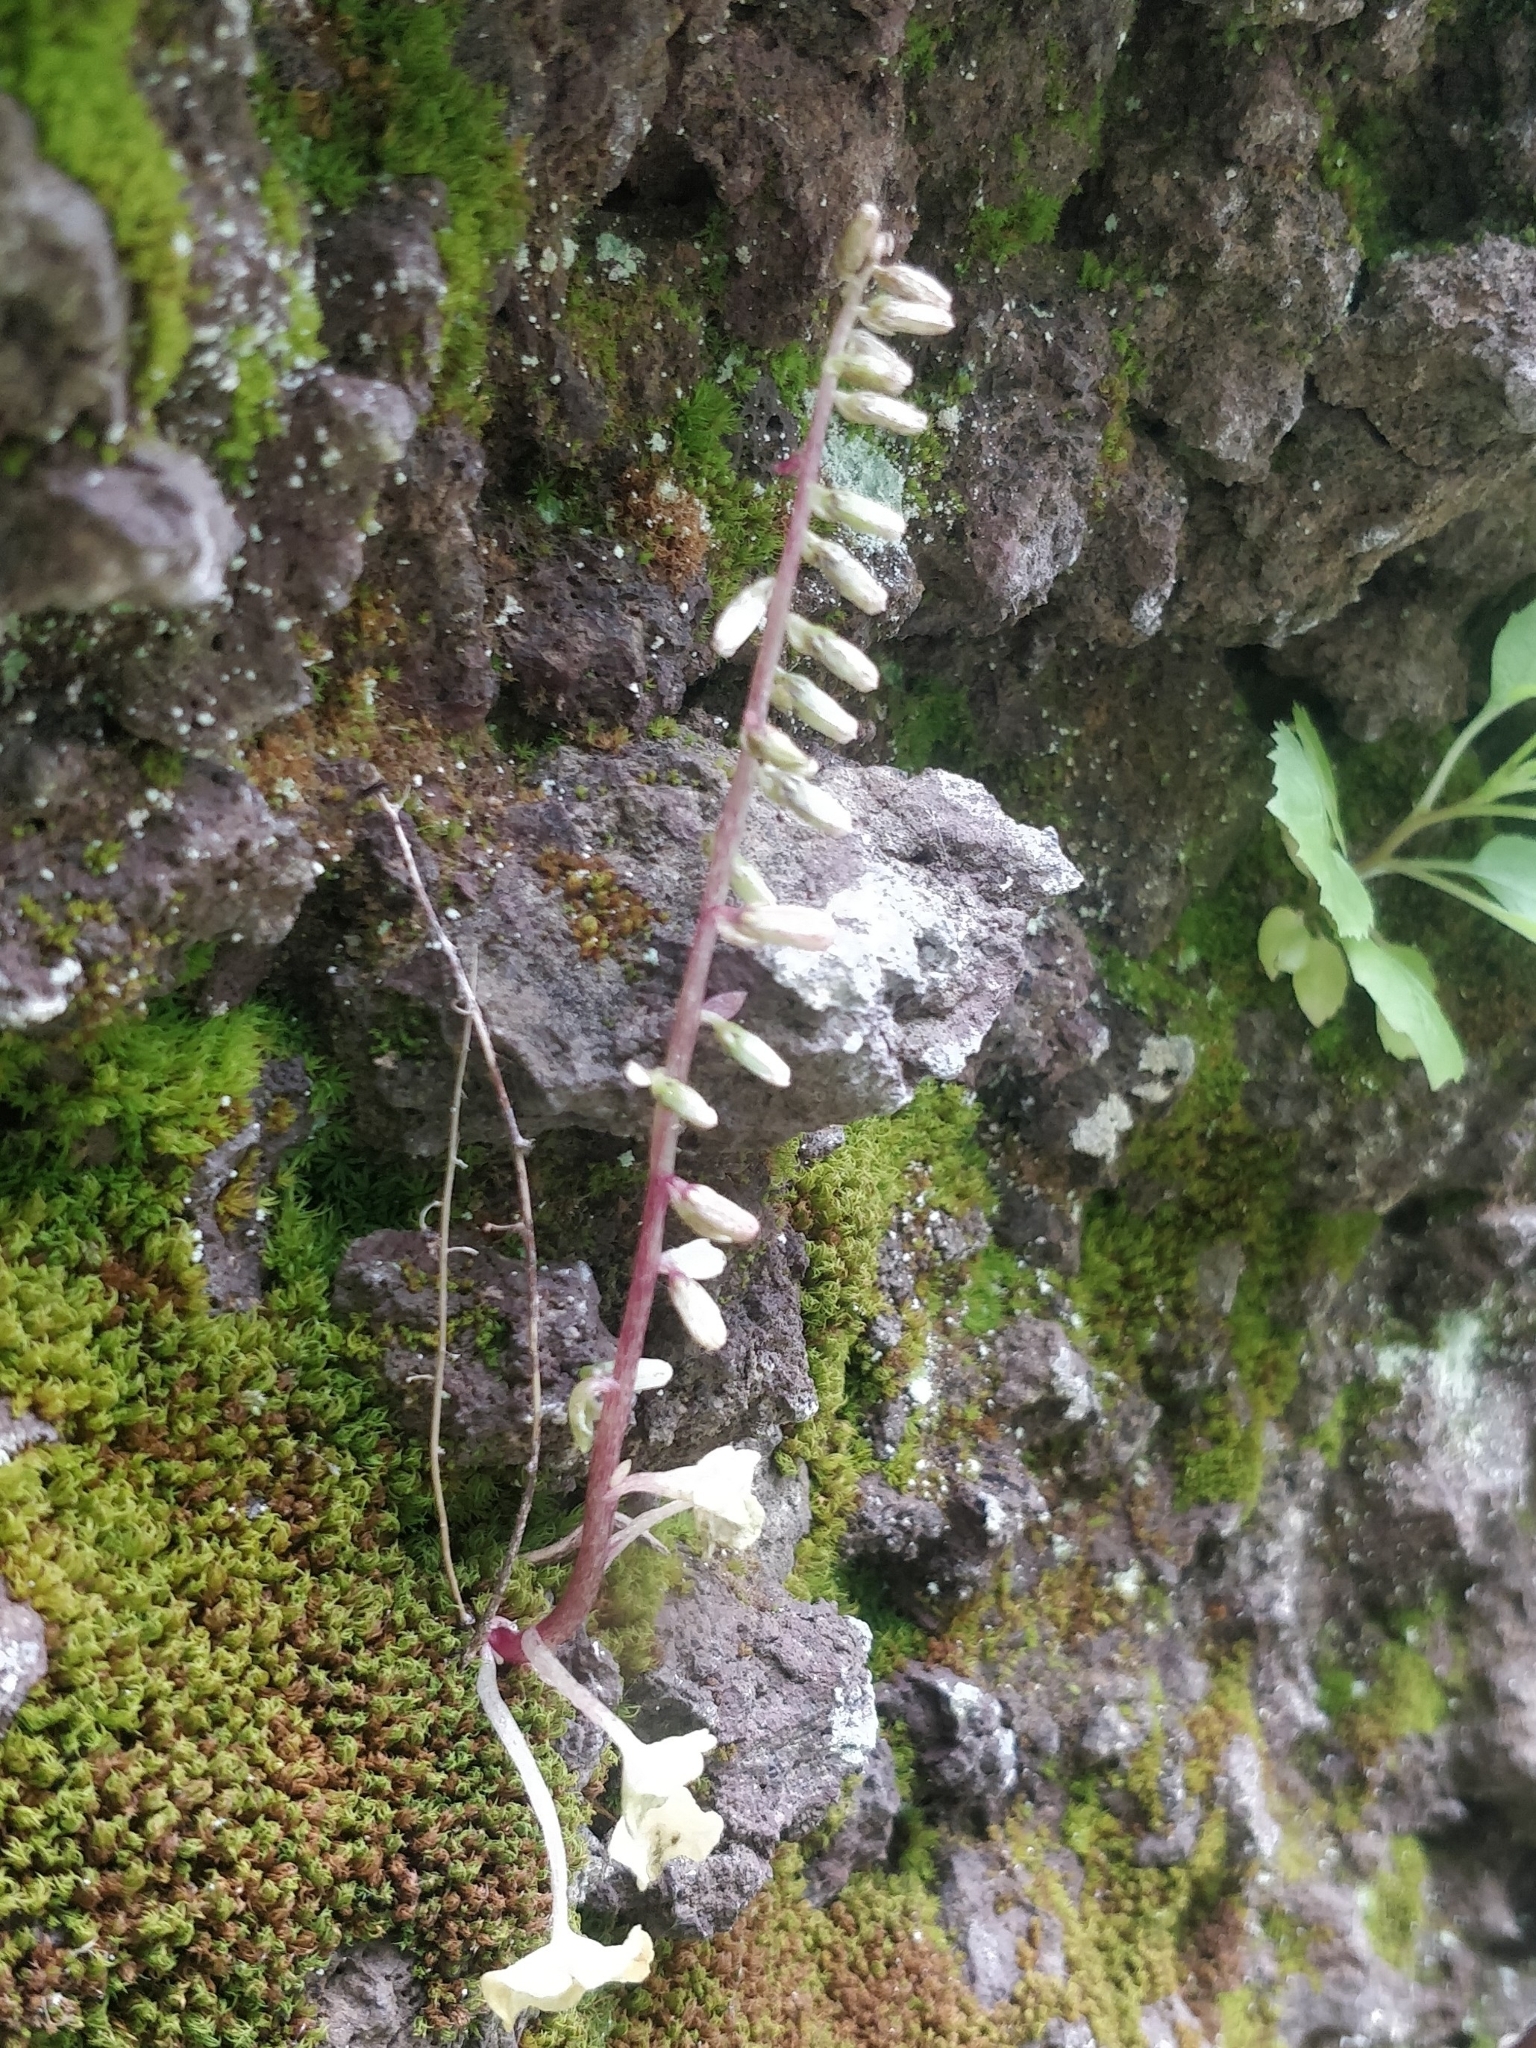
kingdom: Plantae
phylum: Tracheophyta
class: Magnoliopsida
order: Saxifragales
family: Crassulaceae
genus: Umbilicus
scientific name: Umbilicus rupestris
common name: Navelwort
